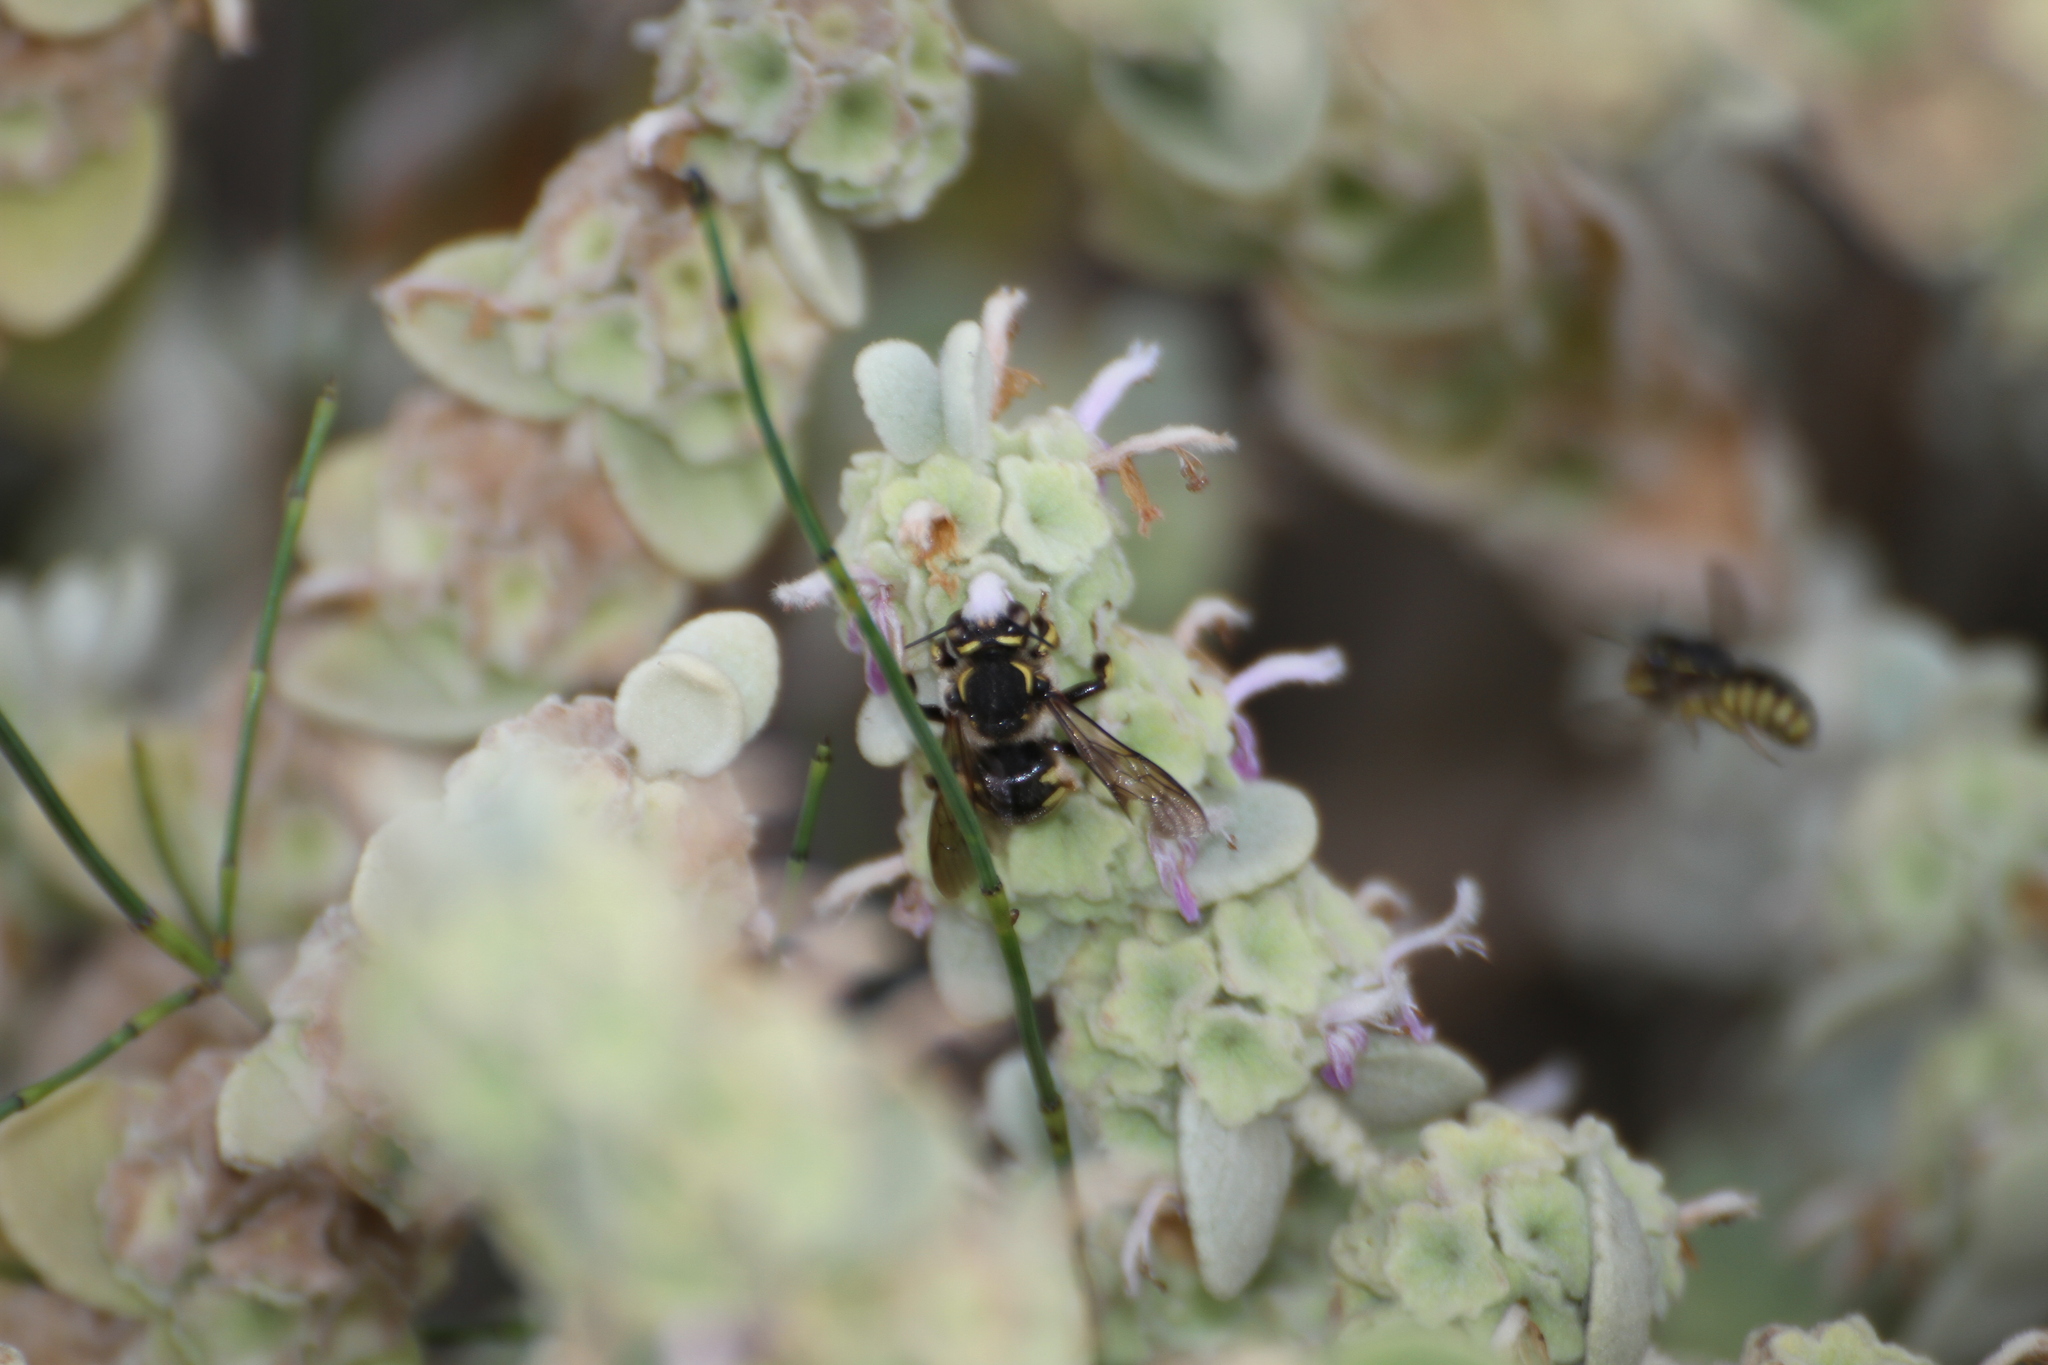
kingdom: Animalia
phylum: Arthropoda
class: Insecta
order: Hymenoptera
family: Megachilidae
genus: Anthidium
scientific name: Anthidium florentinum
